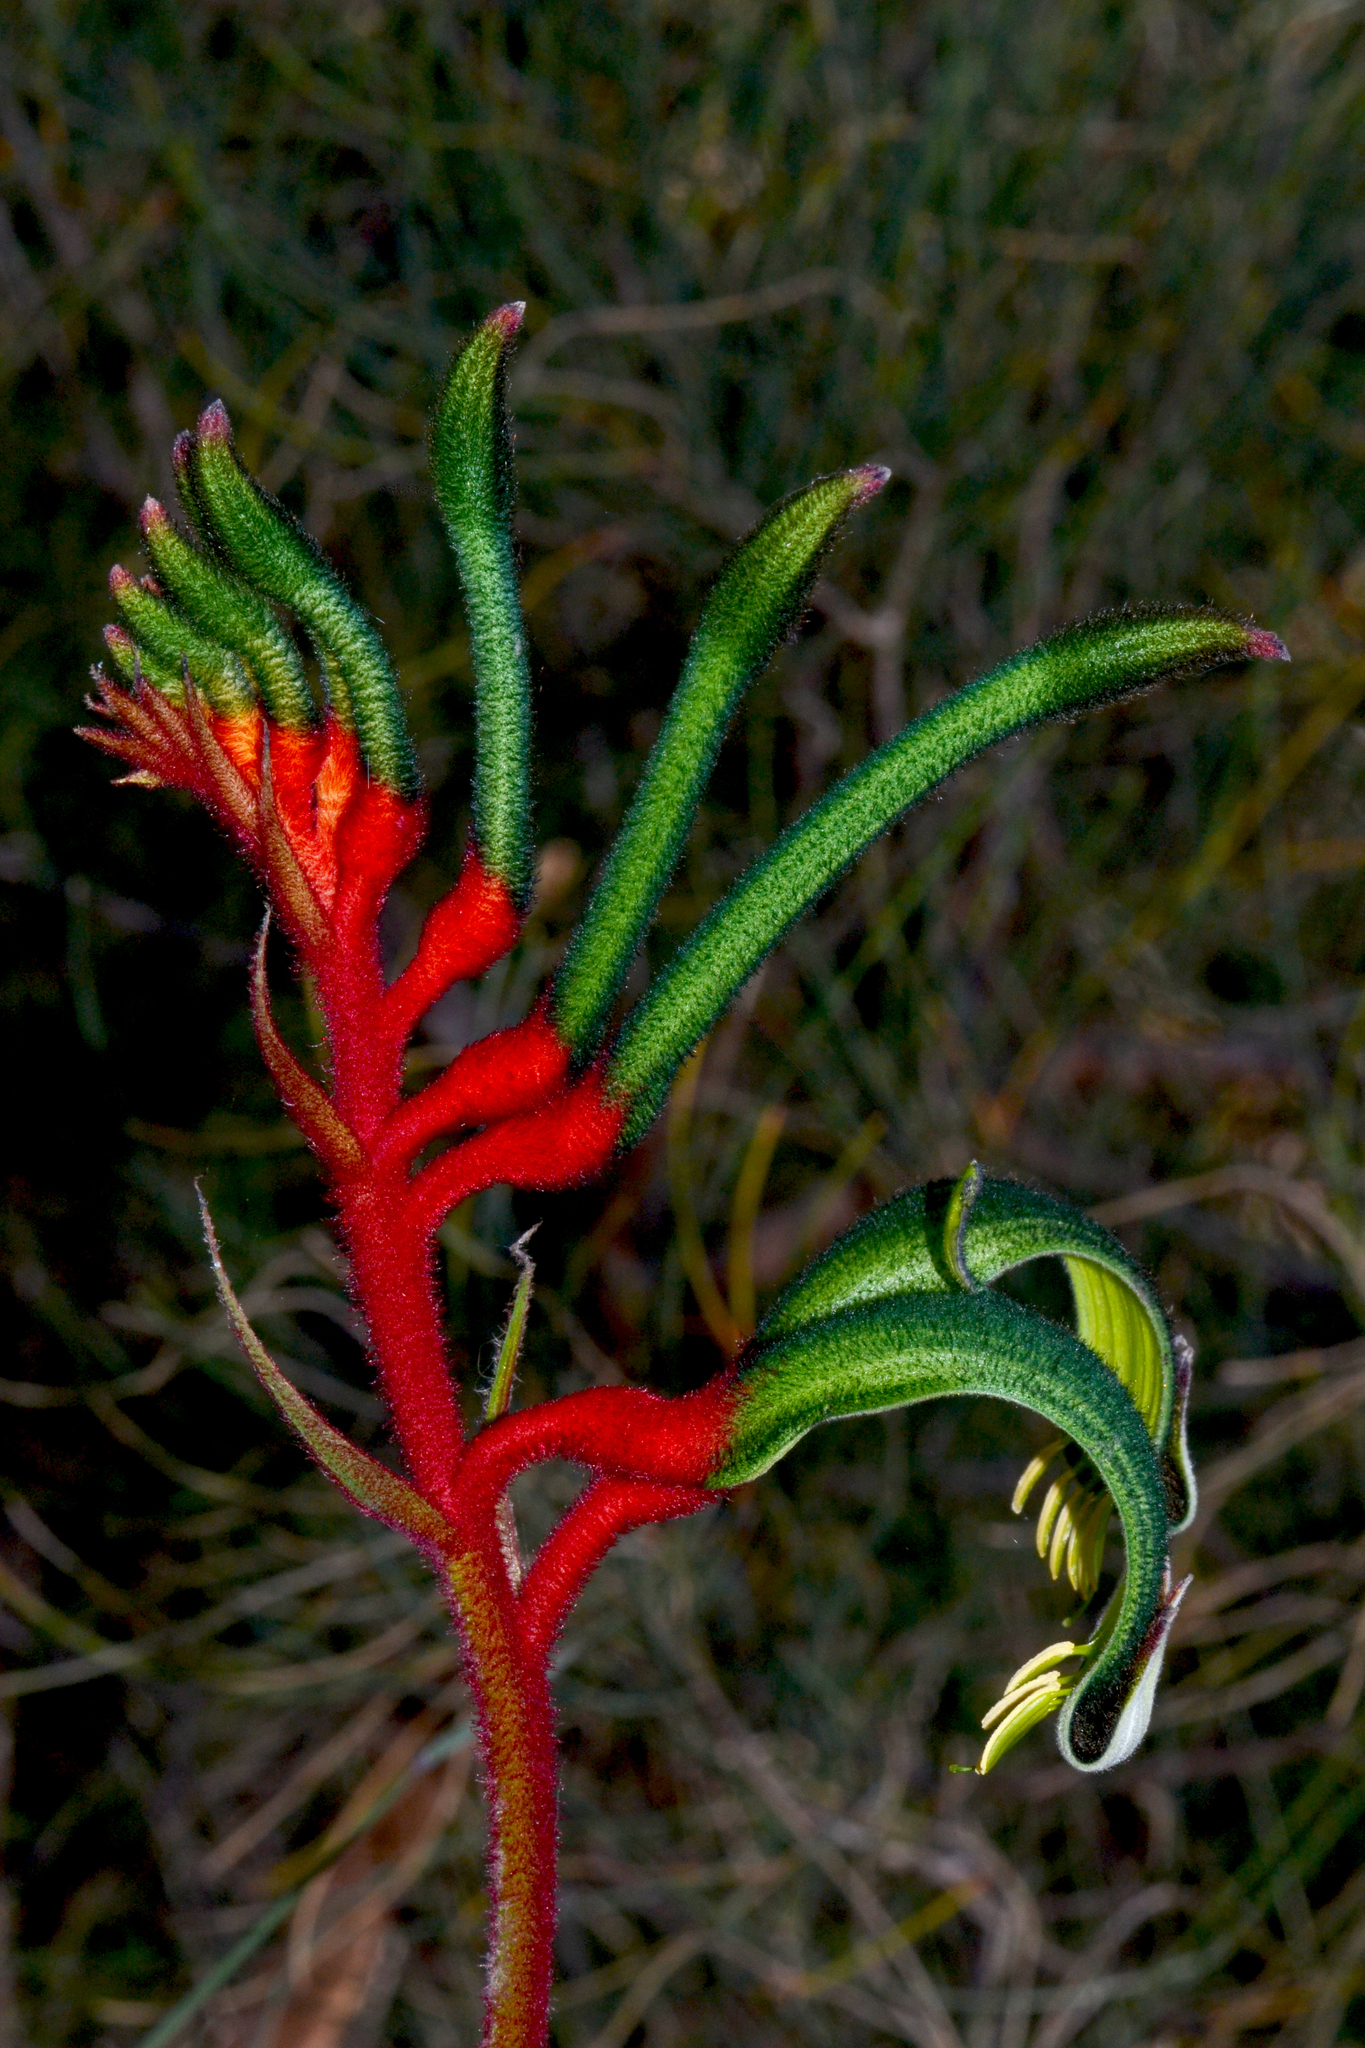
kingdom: Plantae
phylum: Tracheophyta
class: Liliopsida
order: Commelinales
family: Haemodoraceae
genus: Anigozanthos
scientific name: Anigozanthos manglesii
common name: Mangles's kangaroo-paw
